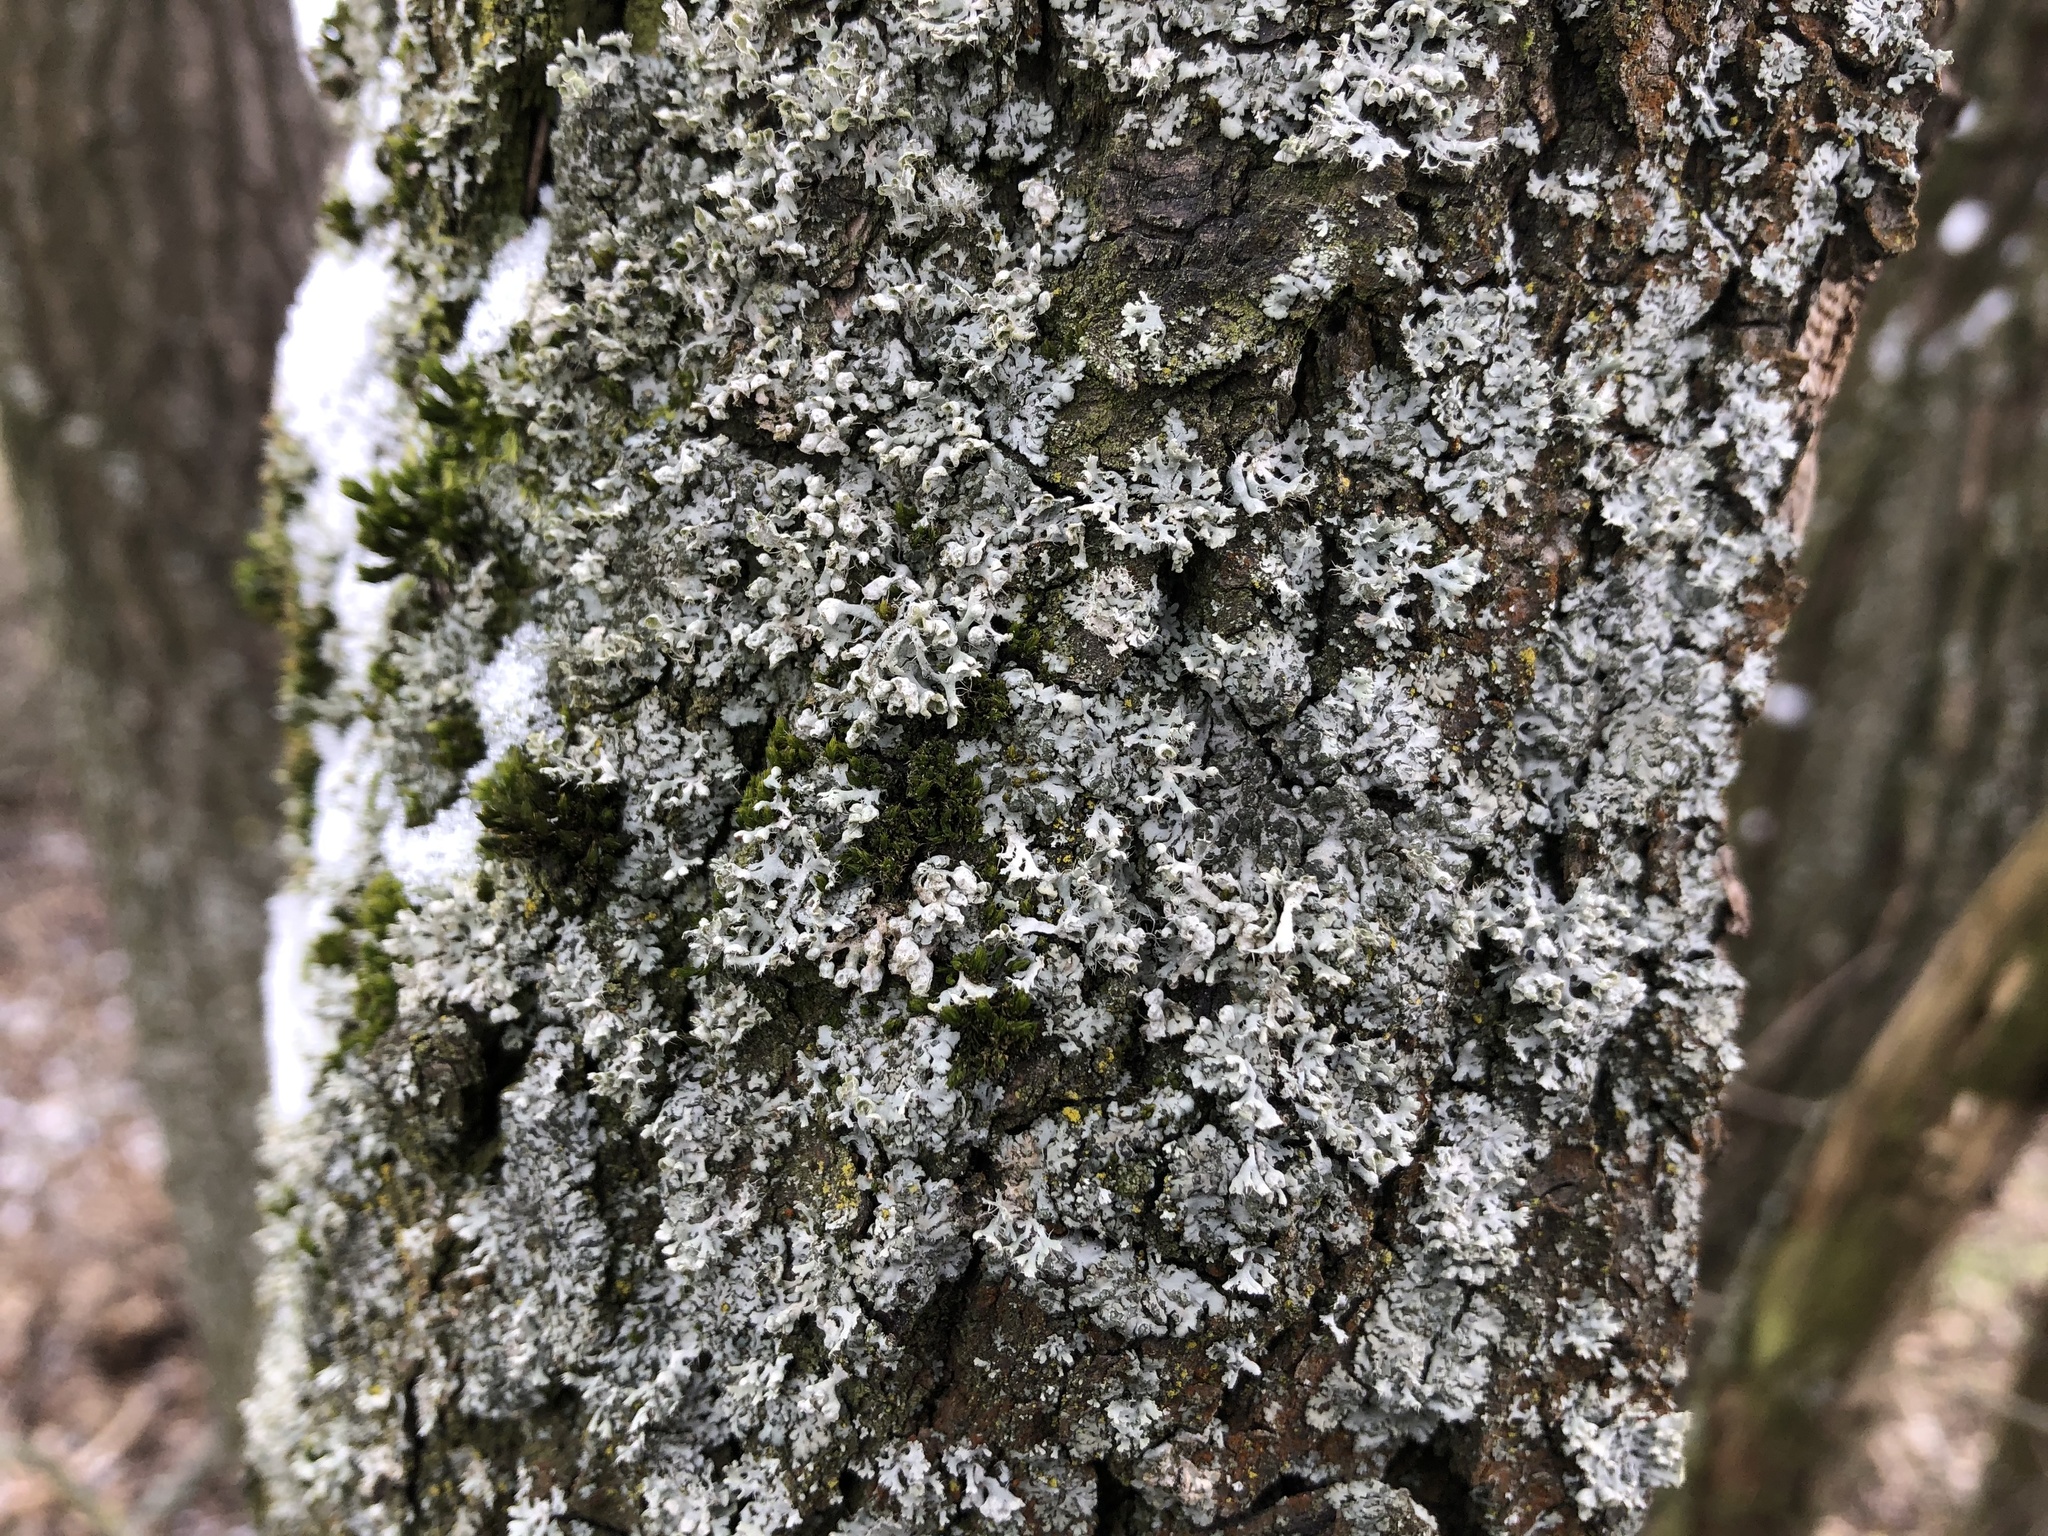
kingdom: Fungi
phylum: Ascomycota
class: Lecanoromycetes
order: Caliciales
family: Physciaceae
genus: Physcia
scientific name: Physcia adscendens
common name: Hooded rosette lichen
